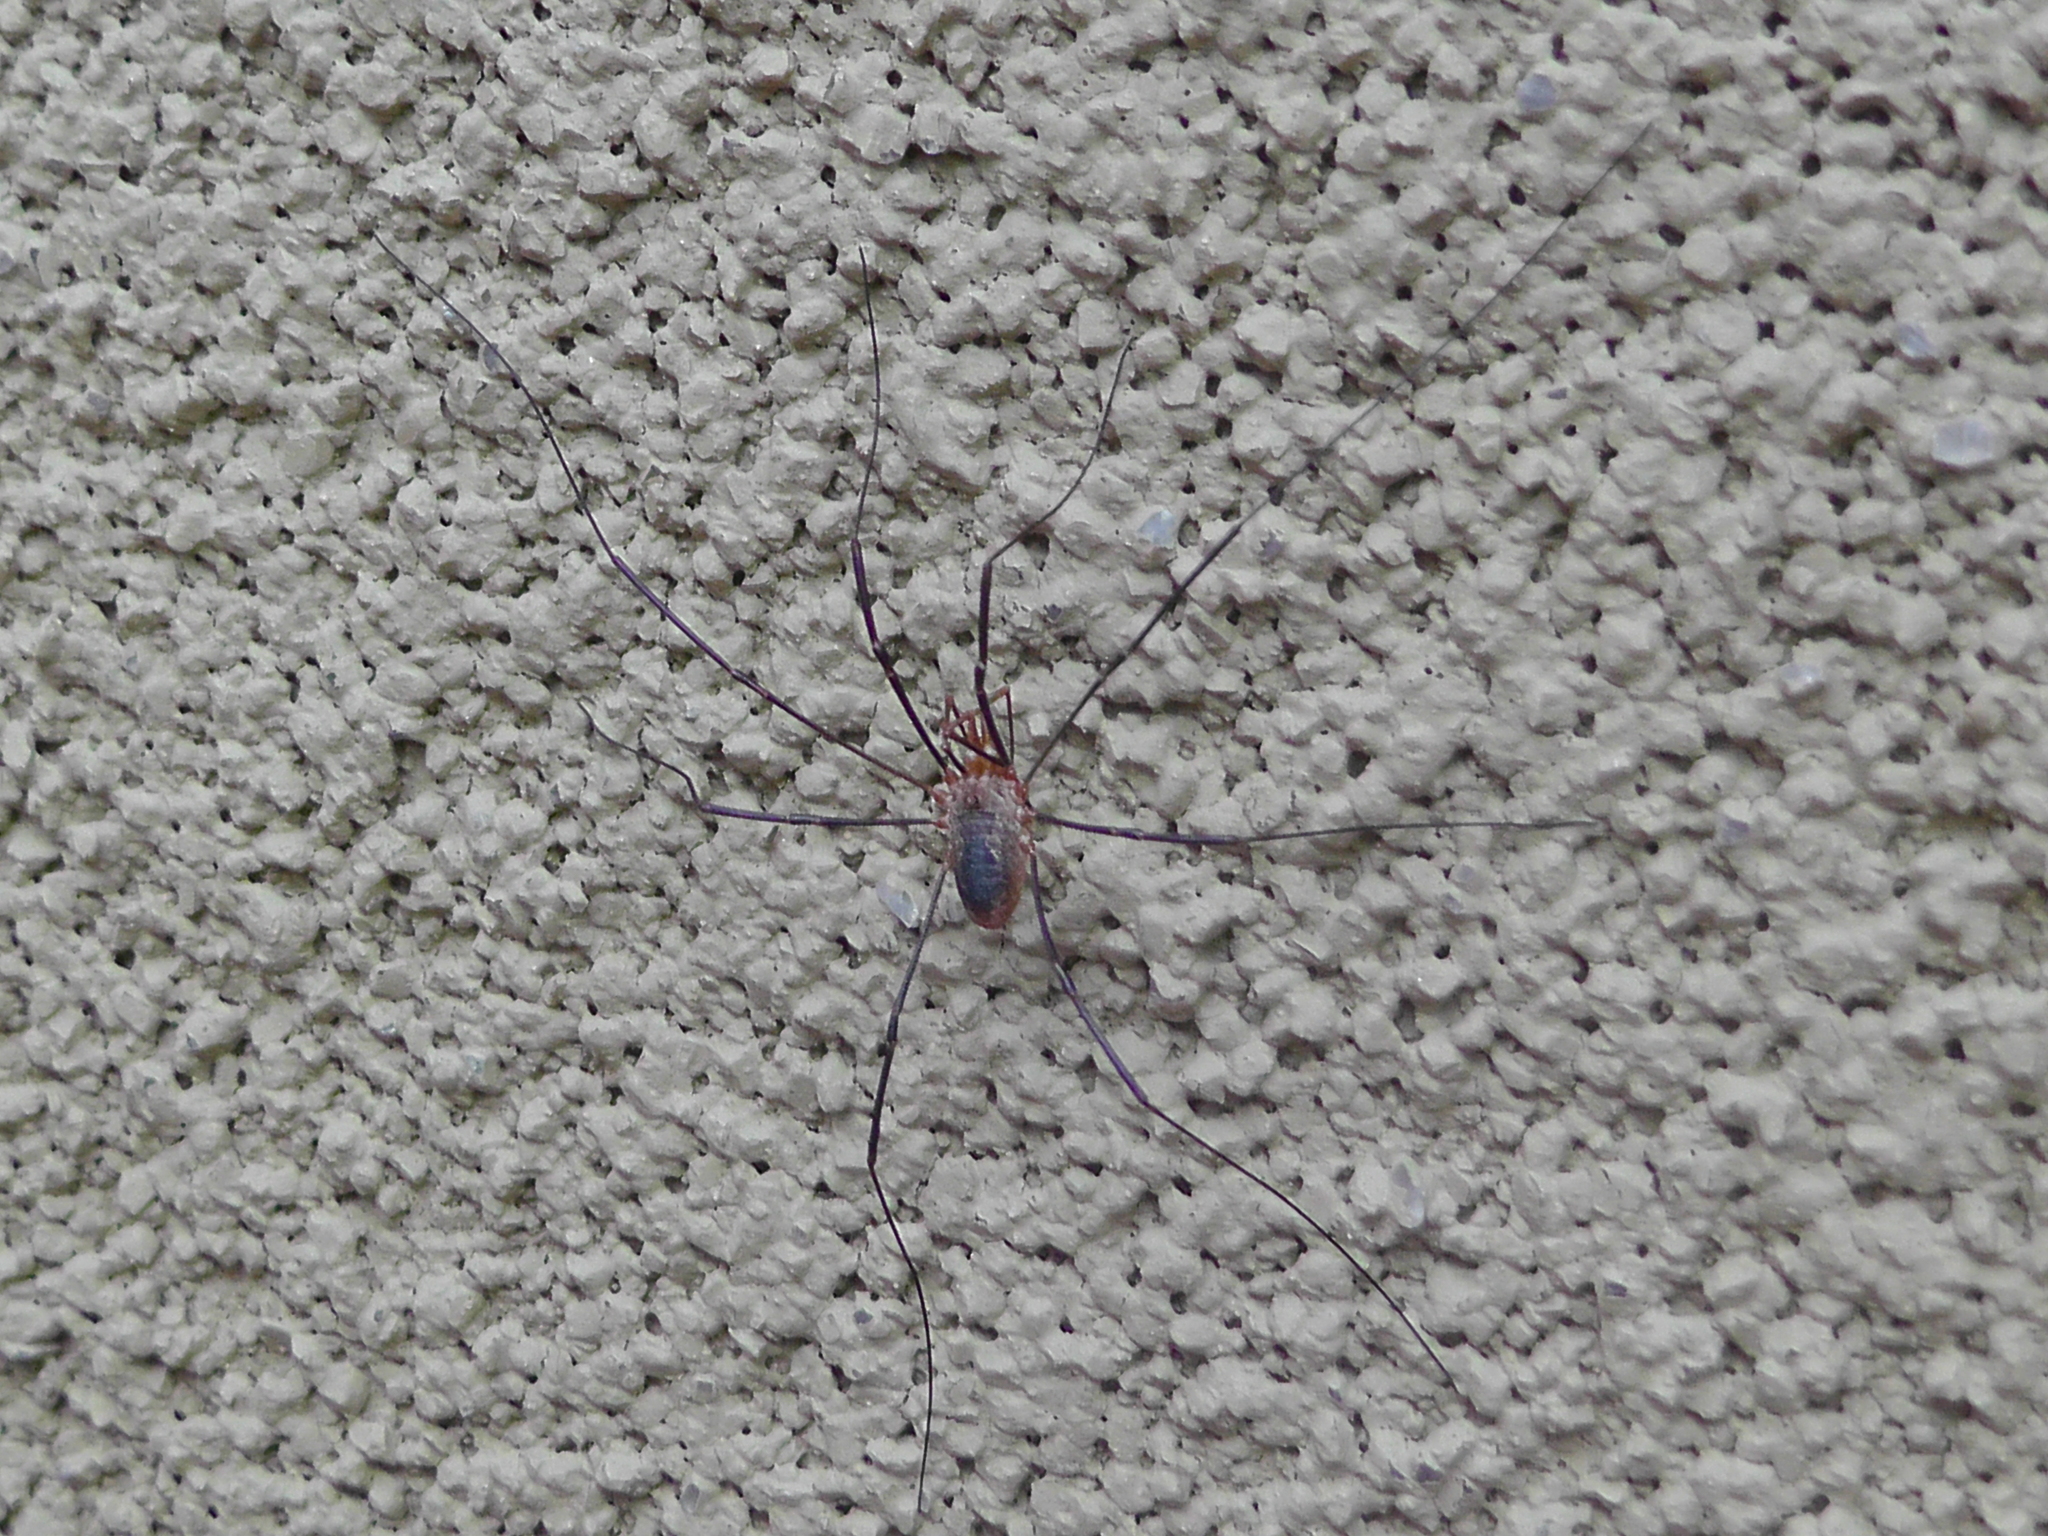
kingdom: Animalia
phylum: Arthropoda
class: Arachnida
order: Opiliones
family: Phalangiidae
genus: Phalangium
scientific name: Phalangium opilio
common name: Daddy longleg
